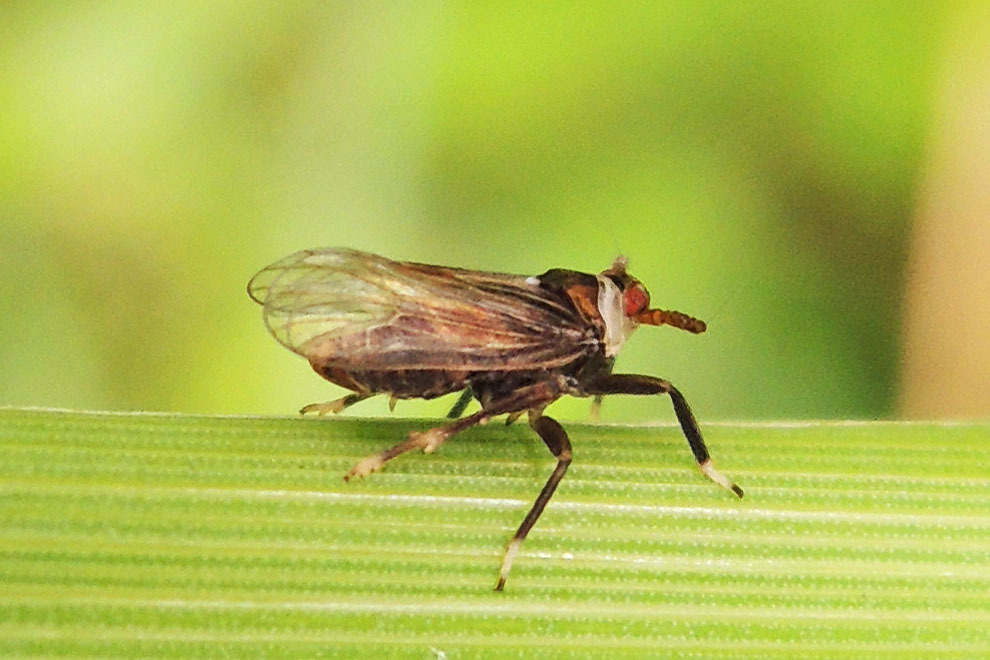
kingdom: Animalia
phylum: Arthropoda
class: Insecta
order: Hemiptera
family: Delphacidae
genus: Pissonotus
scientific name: Pissonotus aphidioides
